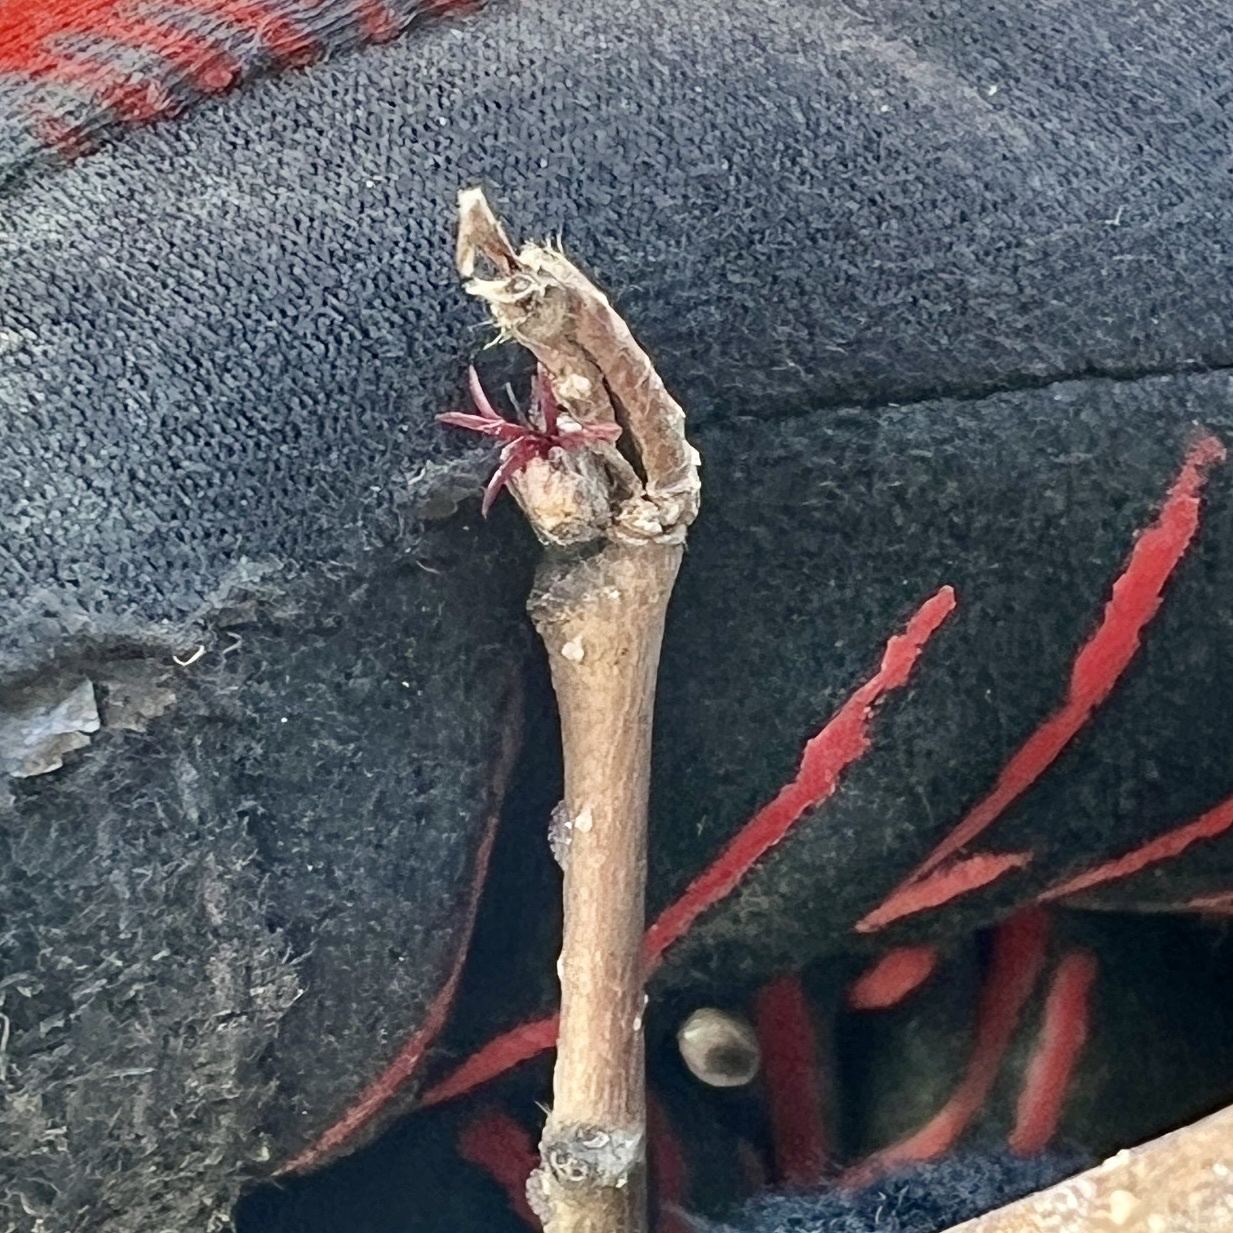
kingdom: Plantae
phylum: Tracheophyta
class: Magnoliopsida
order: Fagales
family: Betulaceae
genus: Corylus
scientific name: Corylus cornuta
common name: Beaked hazel
